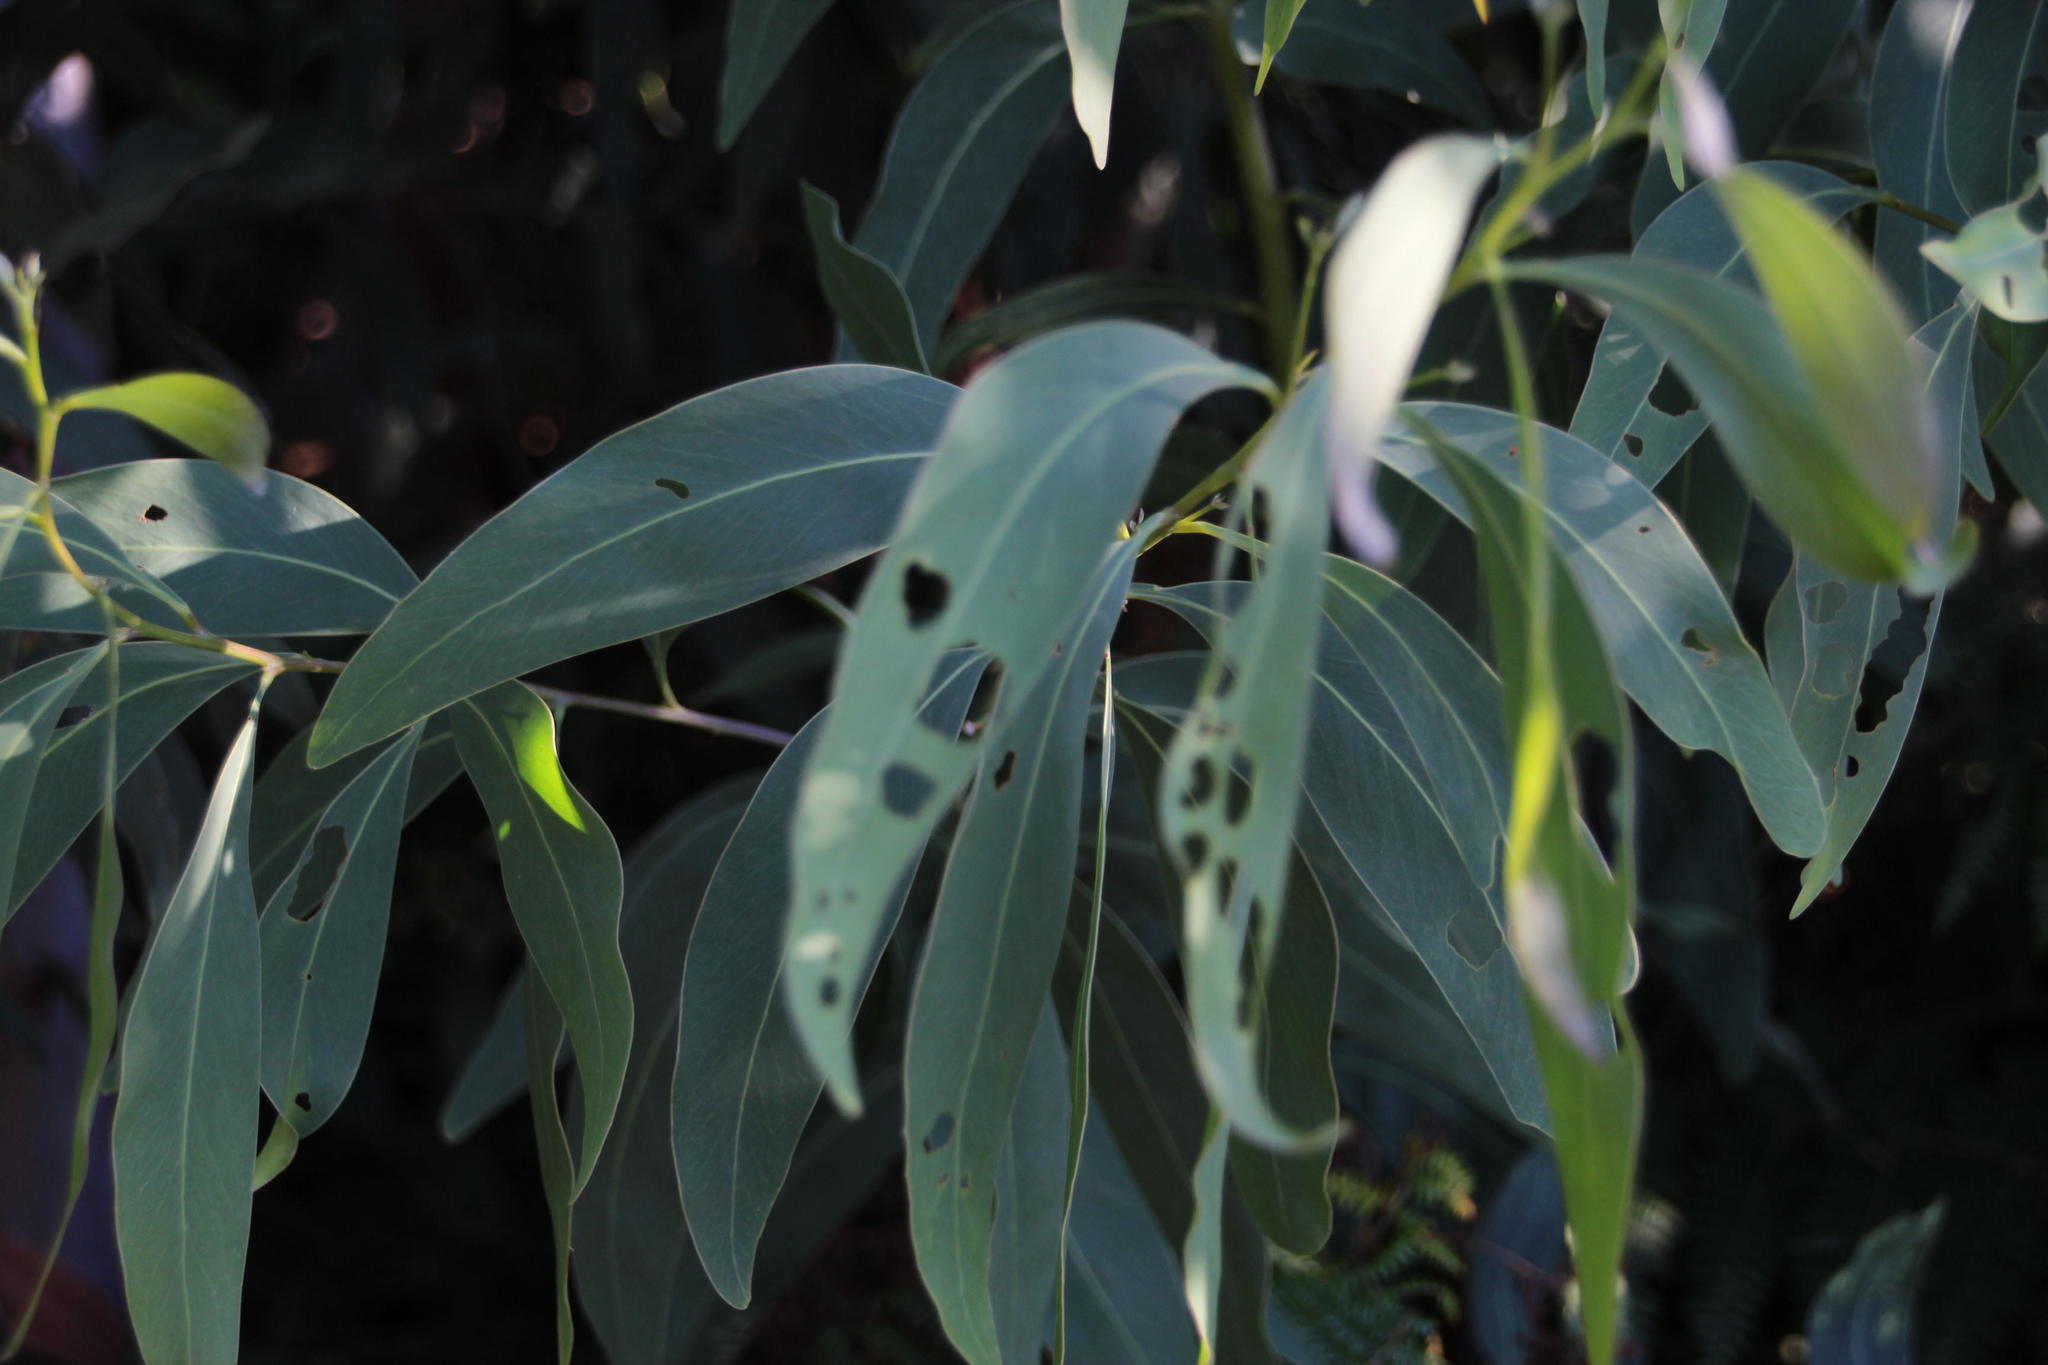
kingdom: Plantae
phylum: Tracheophyta
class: Magnoliopsida
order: Fabales
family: Fabaceae
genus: Acacia
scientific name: Acacia falciformis
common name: Tanning wattle
